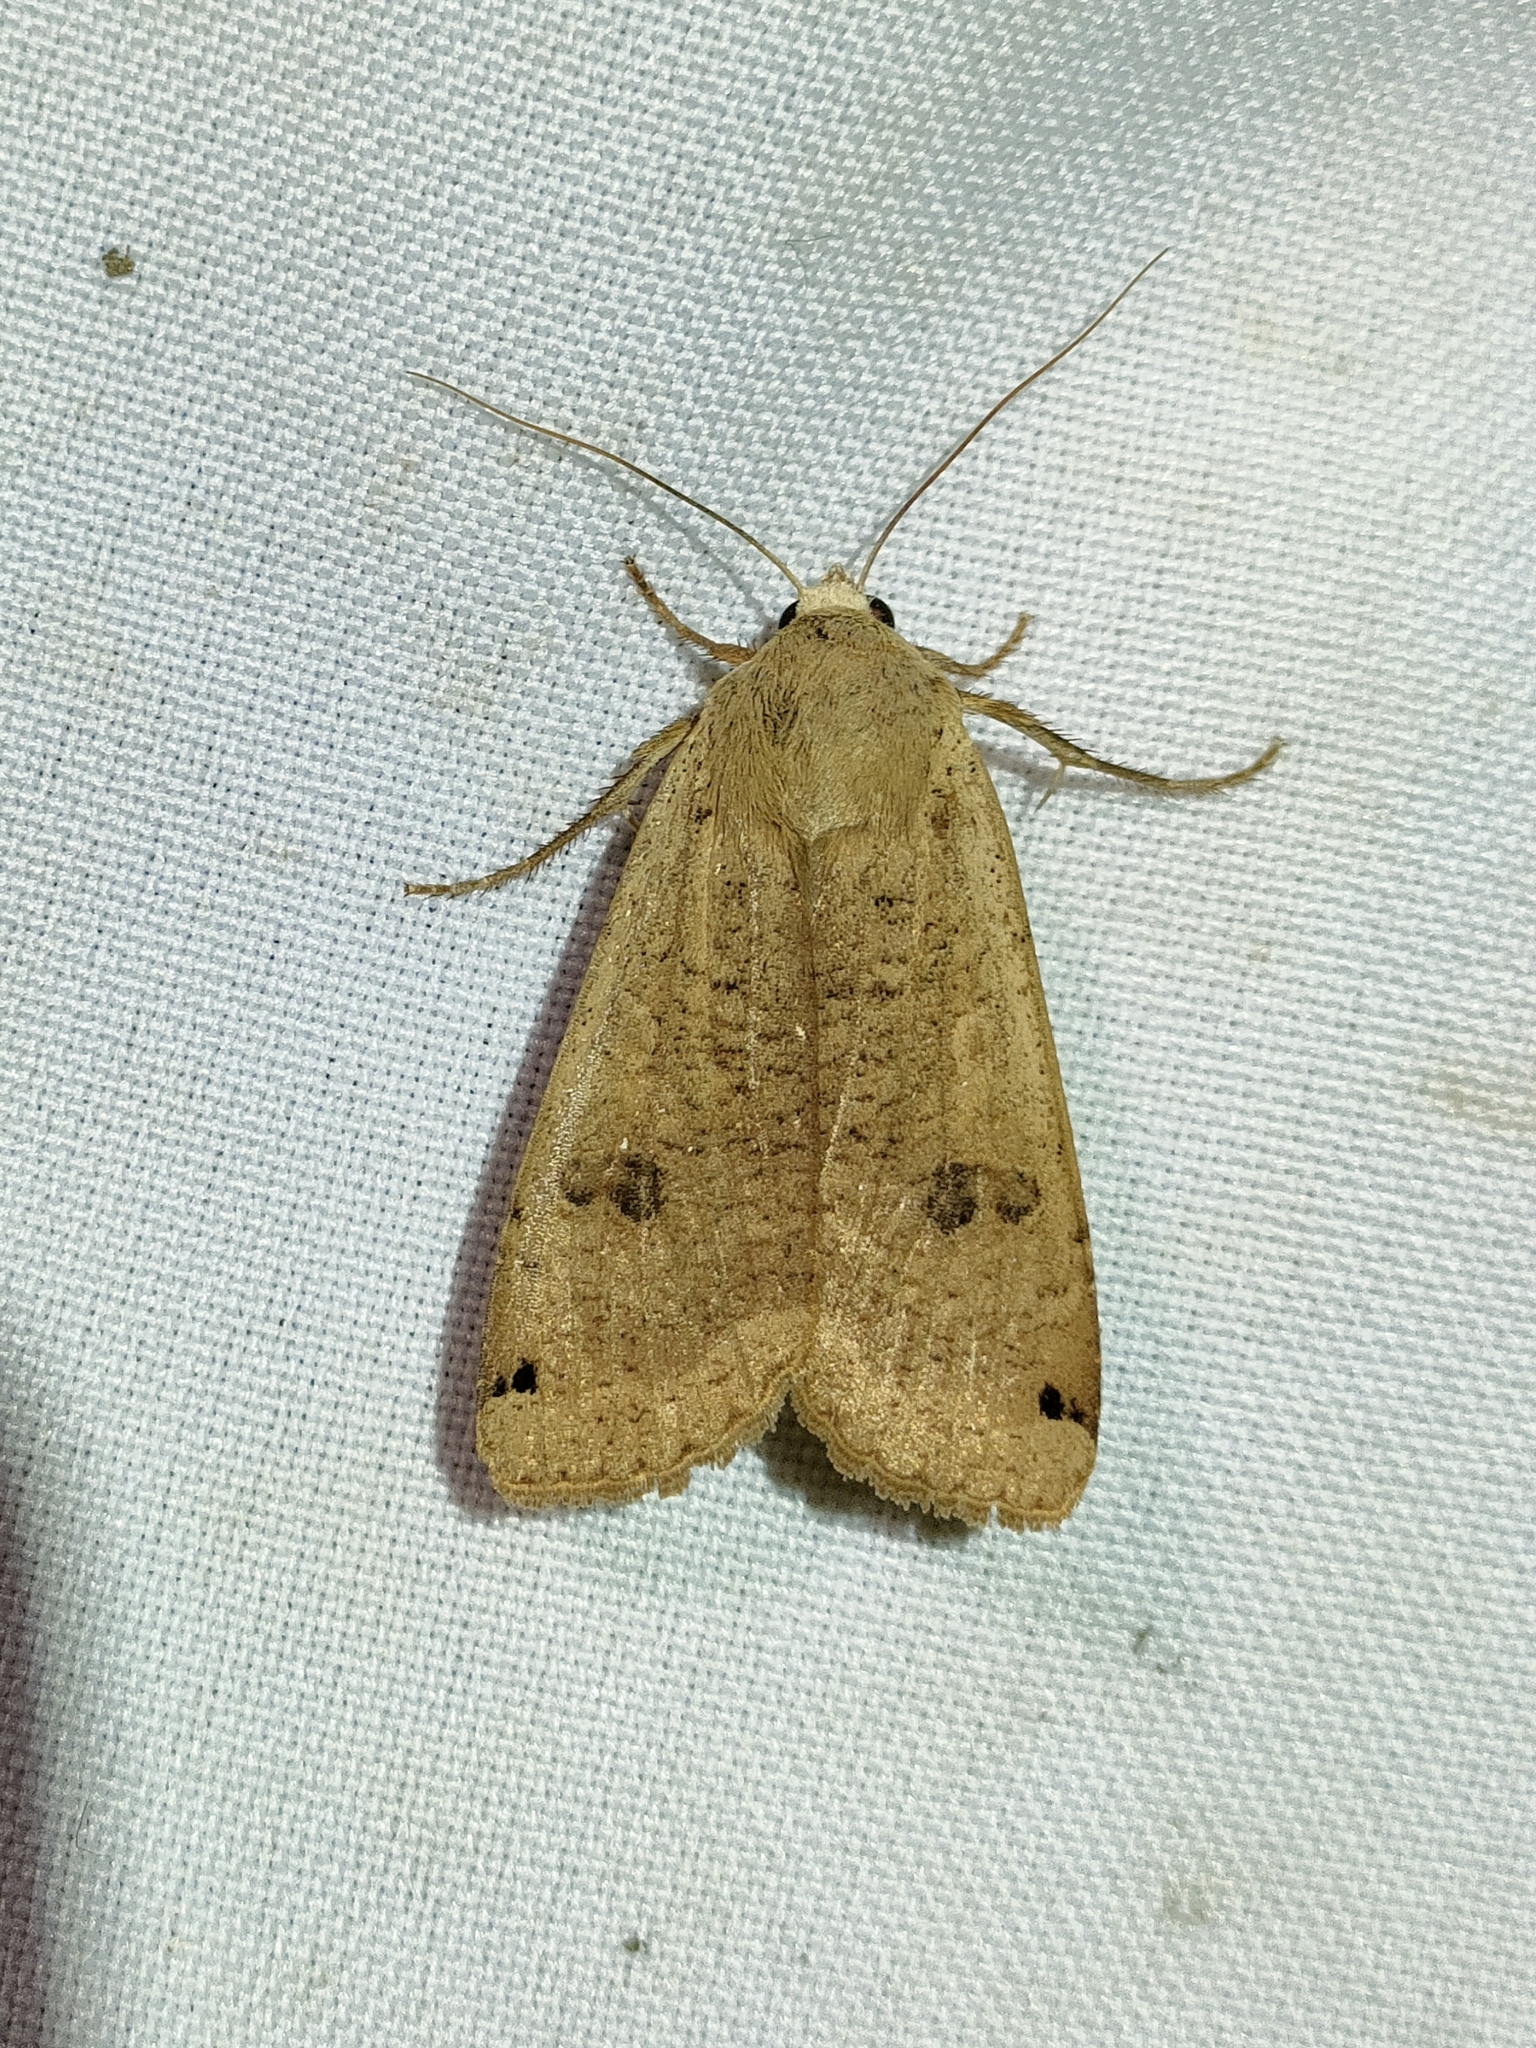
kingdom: Animalia
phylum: Arthropoda
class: Insecta
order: Lepidoptera
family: Noctuidae
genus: Noctua
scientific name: Noctua pronuba
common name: Large yellow underwing
